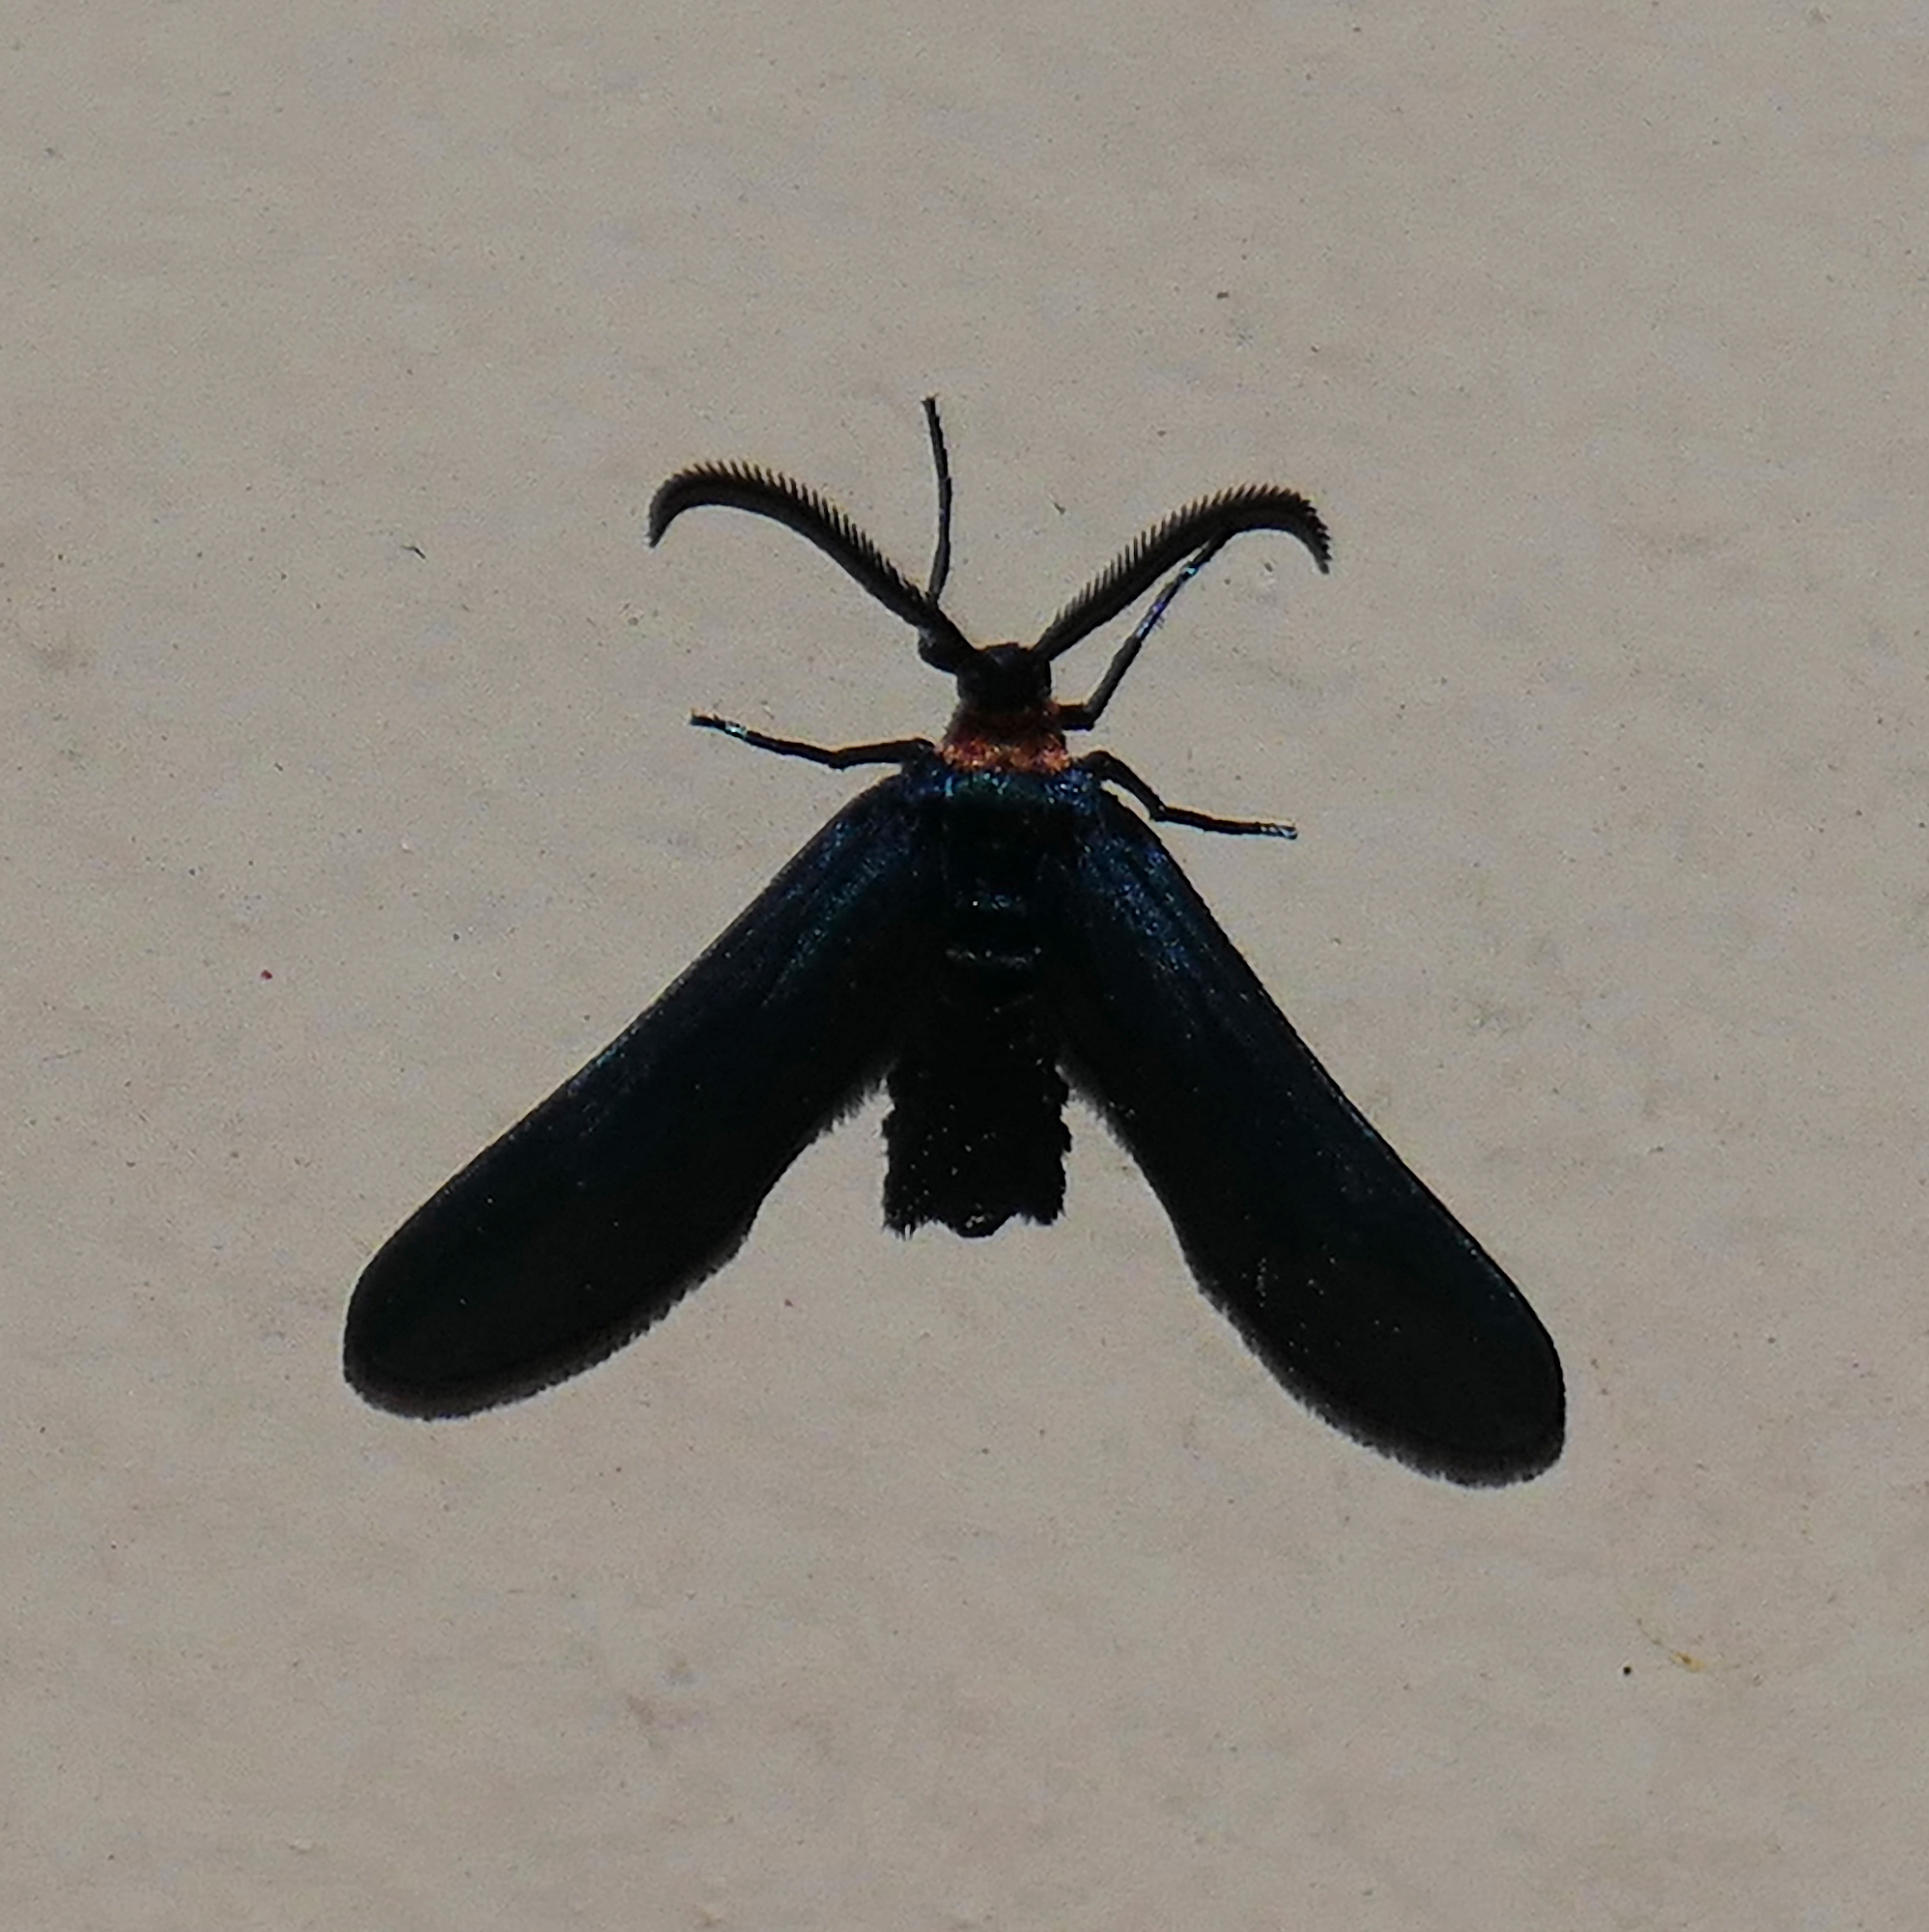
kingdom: Animalia
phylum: Arthropoda
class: Insecta
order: Lepidoptera
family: Zygaenidae
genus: Harrisina
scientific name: Harrisina metallica
